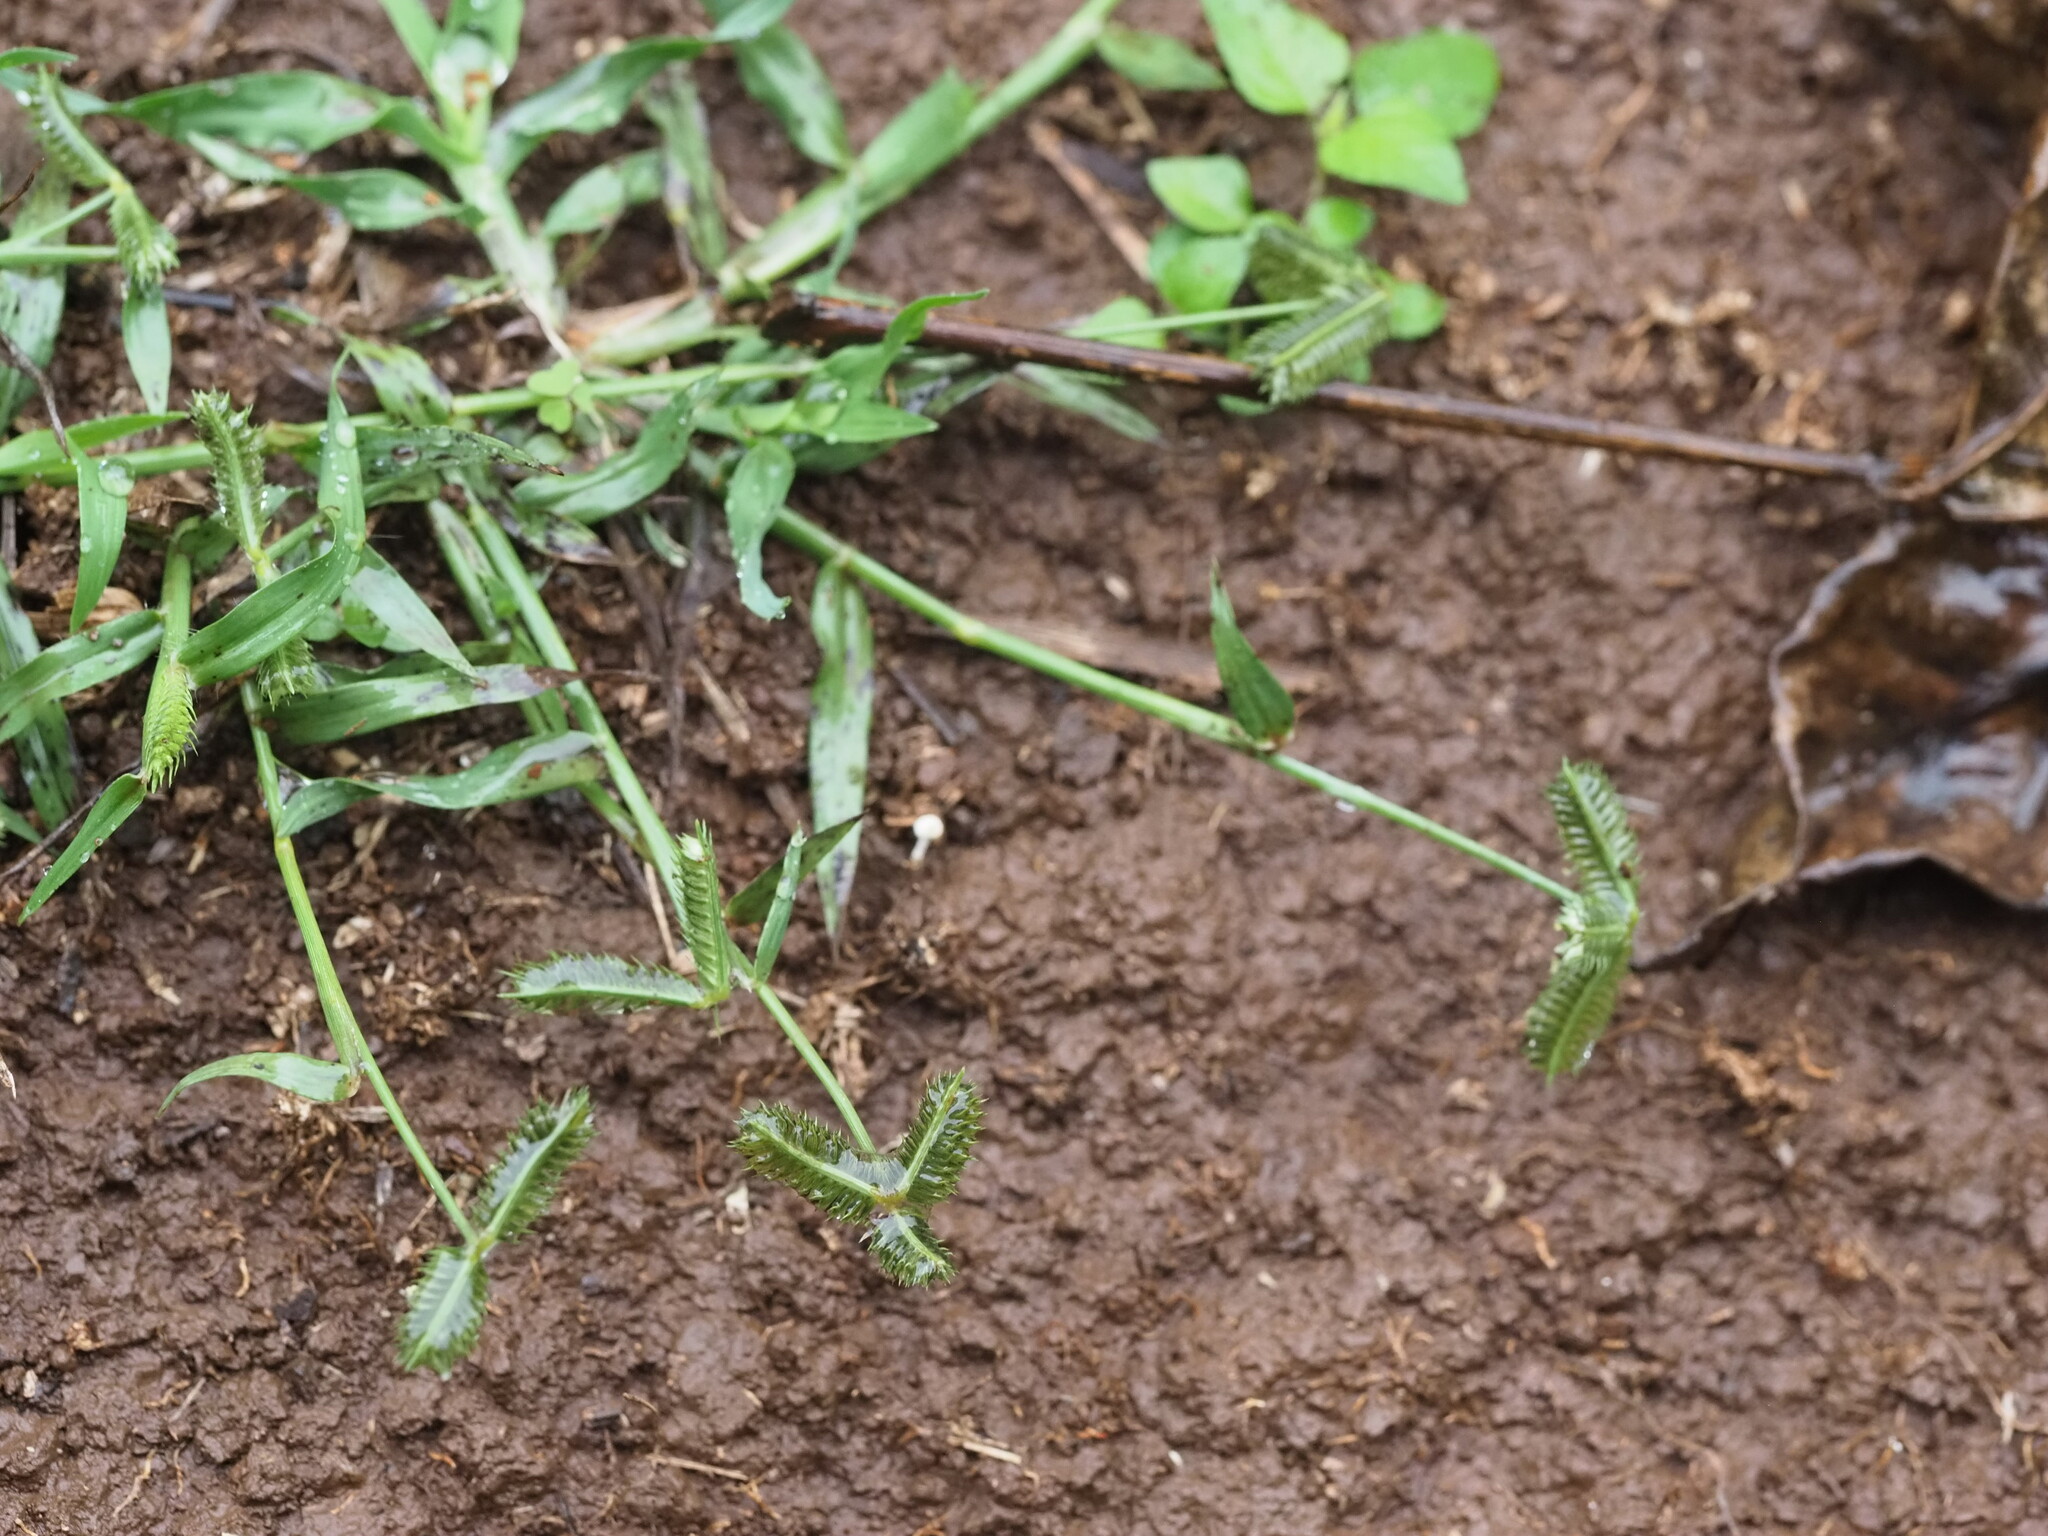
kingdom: Plantae
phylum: Tracheophyta
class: Liliopsida
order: Poales
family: Poaceae
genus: Dactyloctenium
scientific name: Dactyloctenium aegyptium
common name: Egyptian grass
